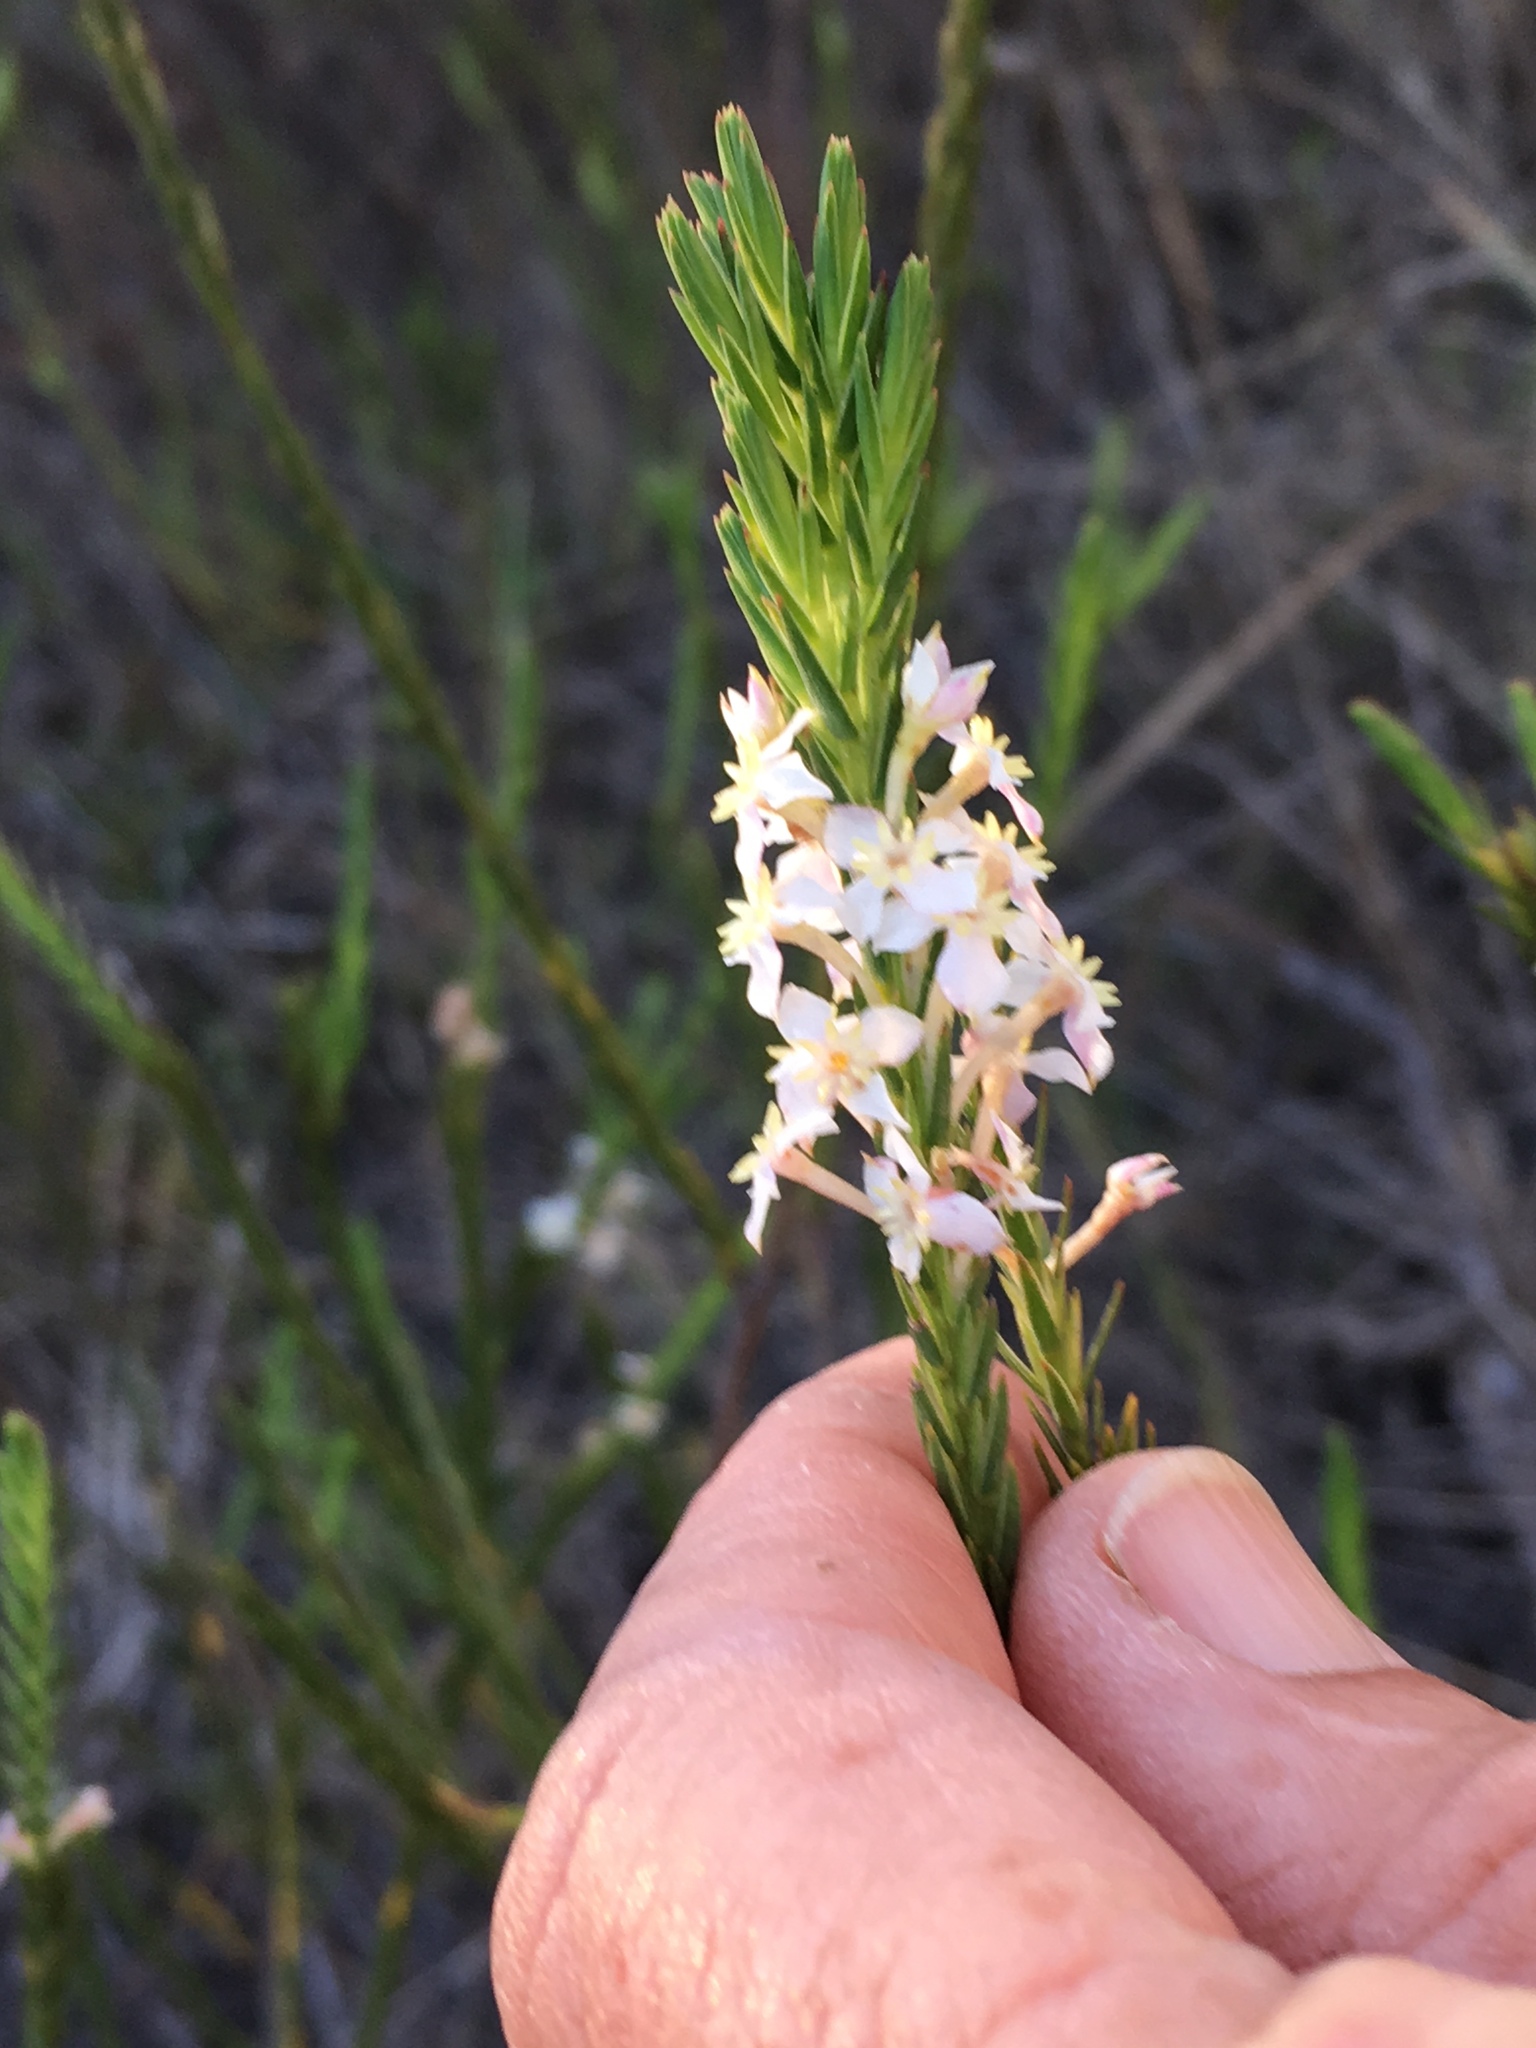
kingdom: Plantae
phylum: Tracheophyta
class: Magnoliopsida
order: Malvales
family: Thymelaeaceae
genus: Struthiola
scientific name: Struthiola ciliata
